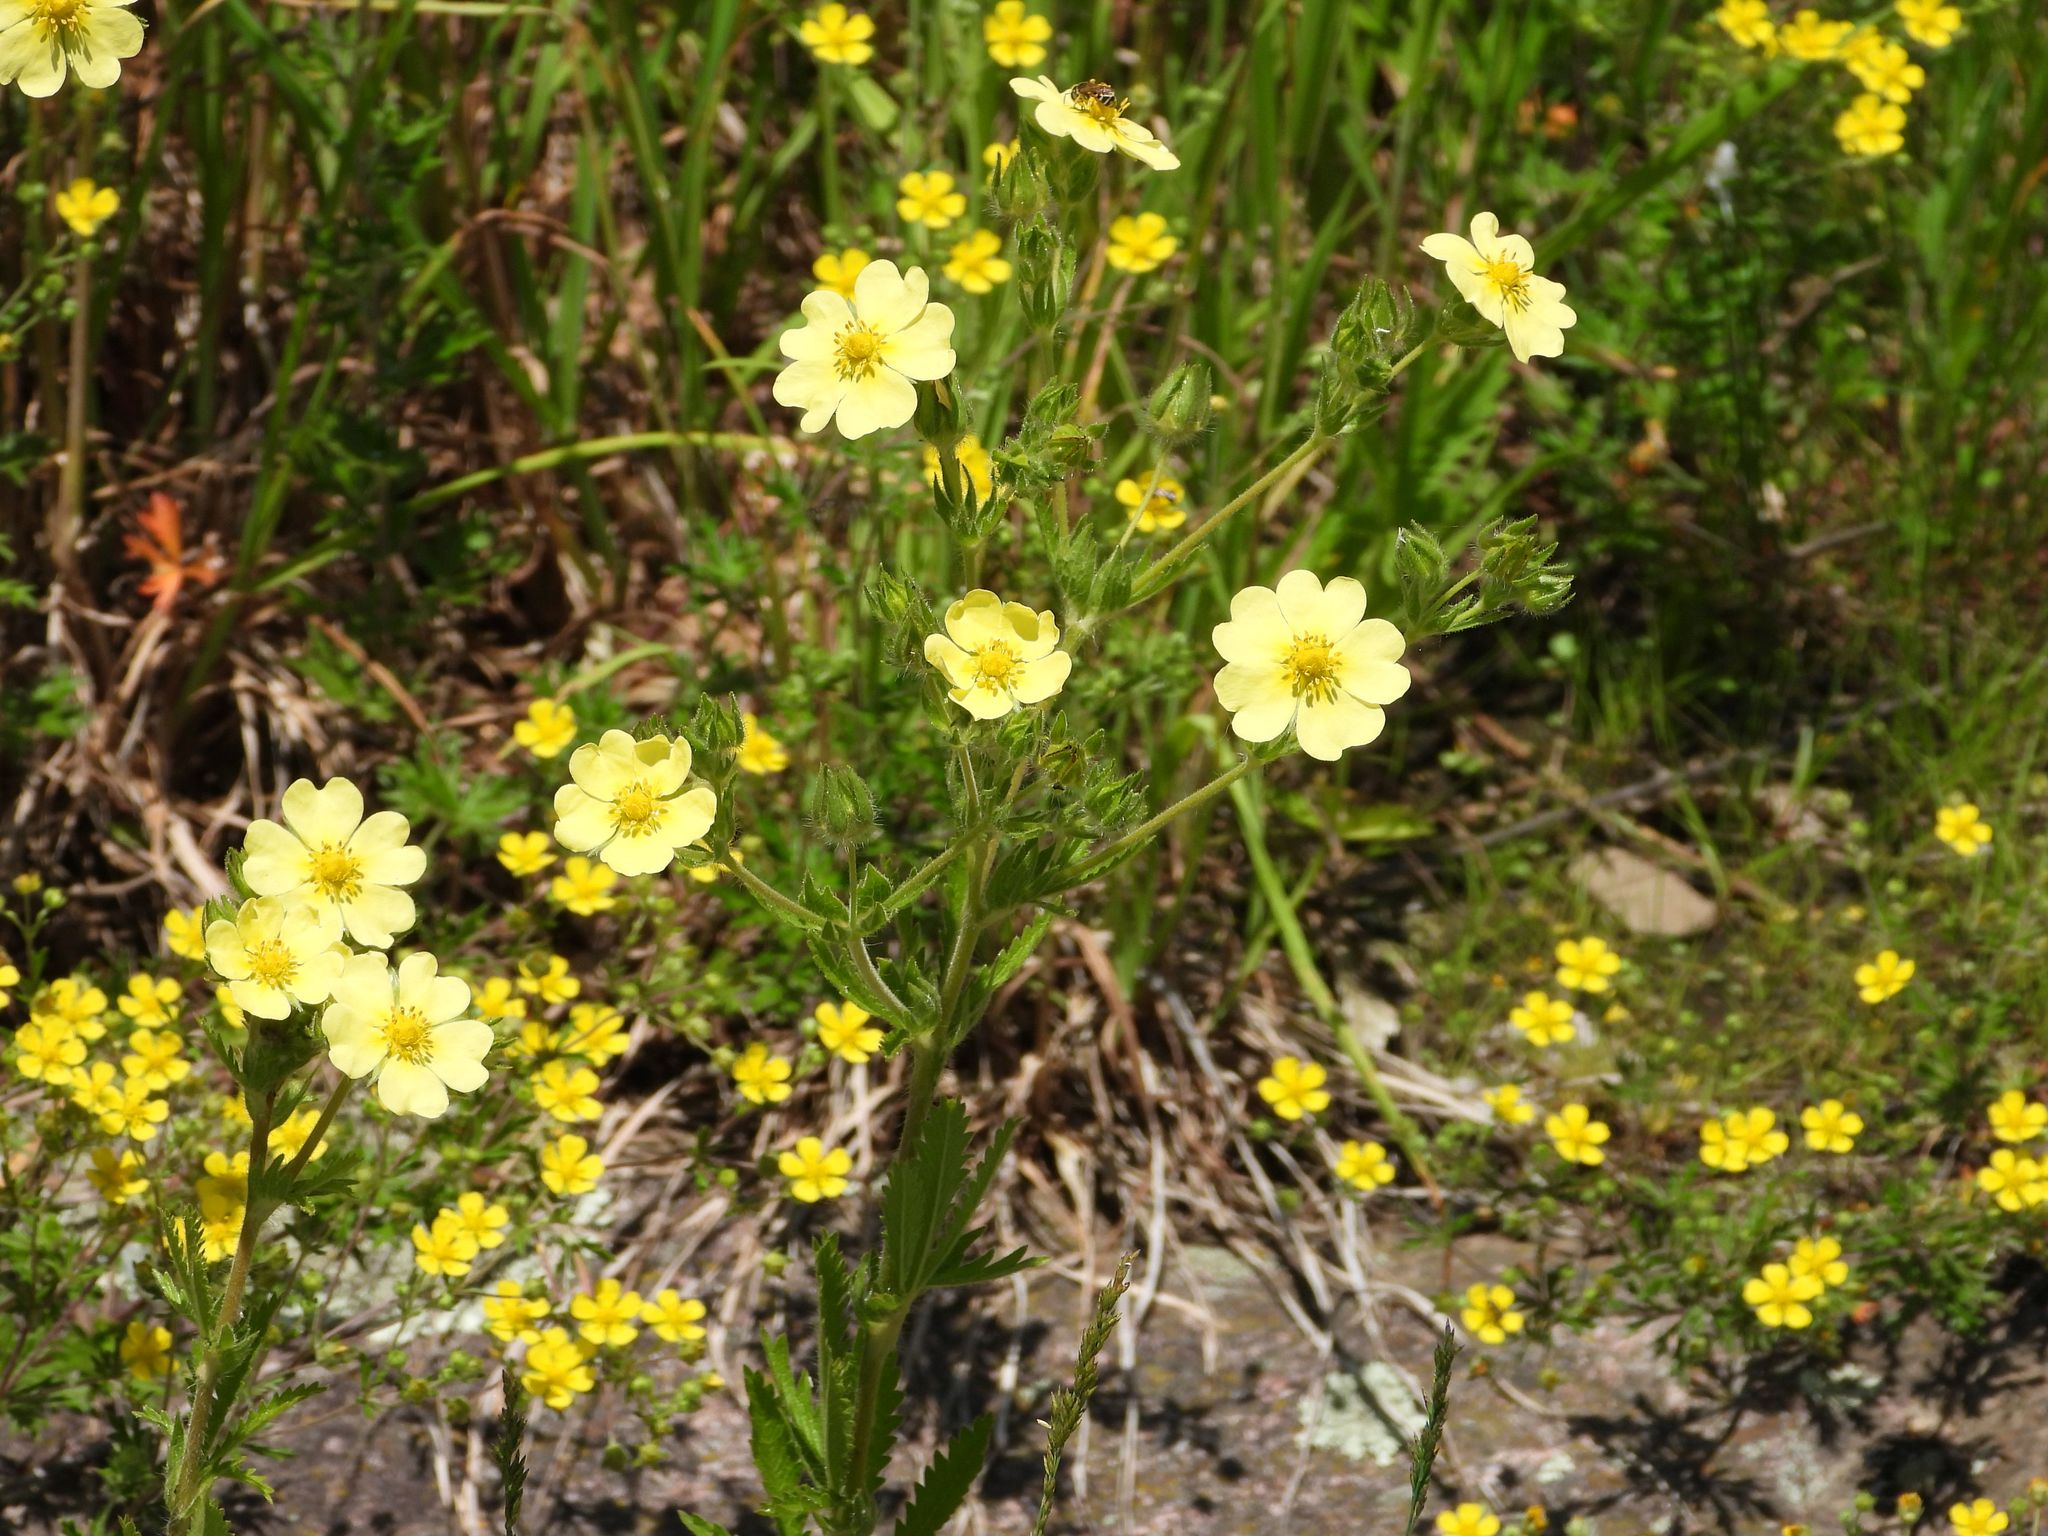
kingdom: Plantae
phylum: Tracheophyta
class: Magnoliopsida
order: Rosales
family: Rosaceae
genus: Potentilla
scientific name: Potentilla recta
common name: Sulphur cinquefoil
